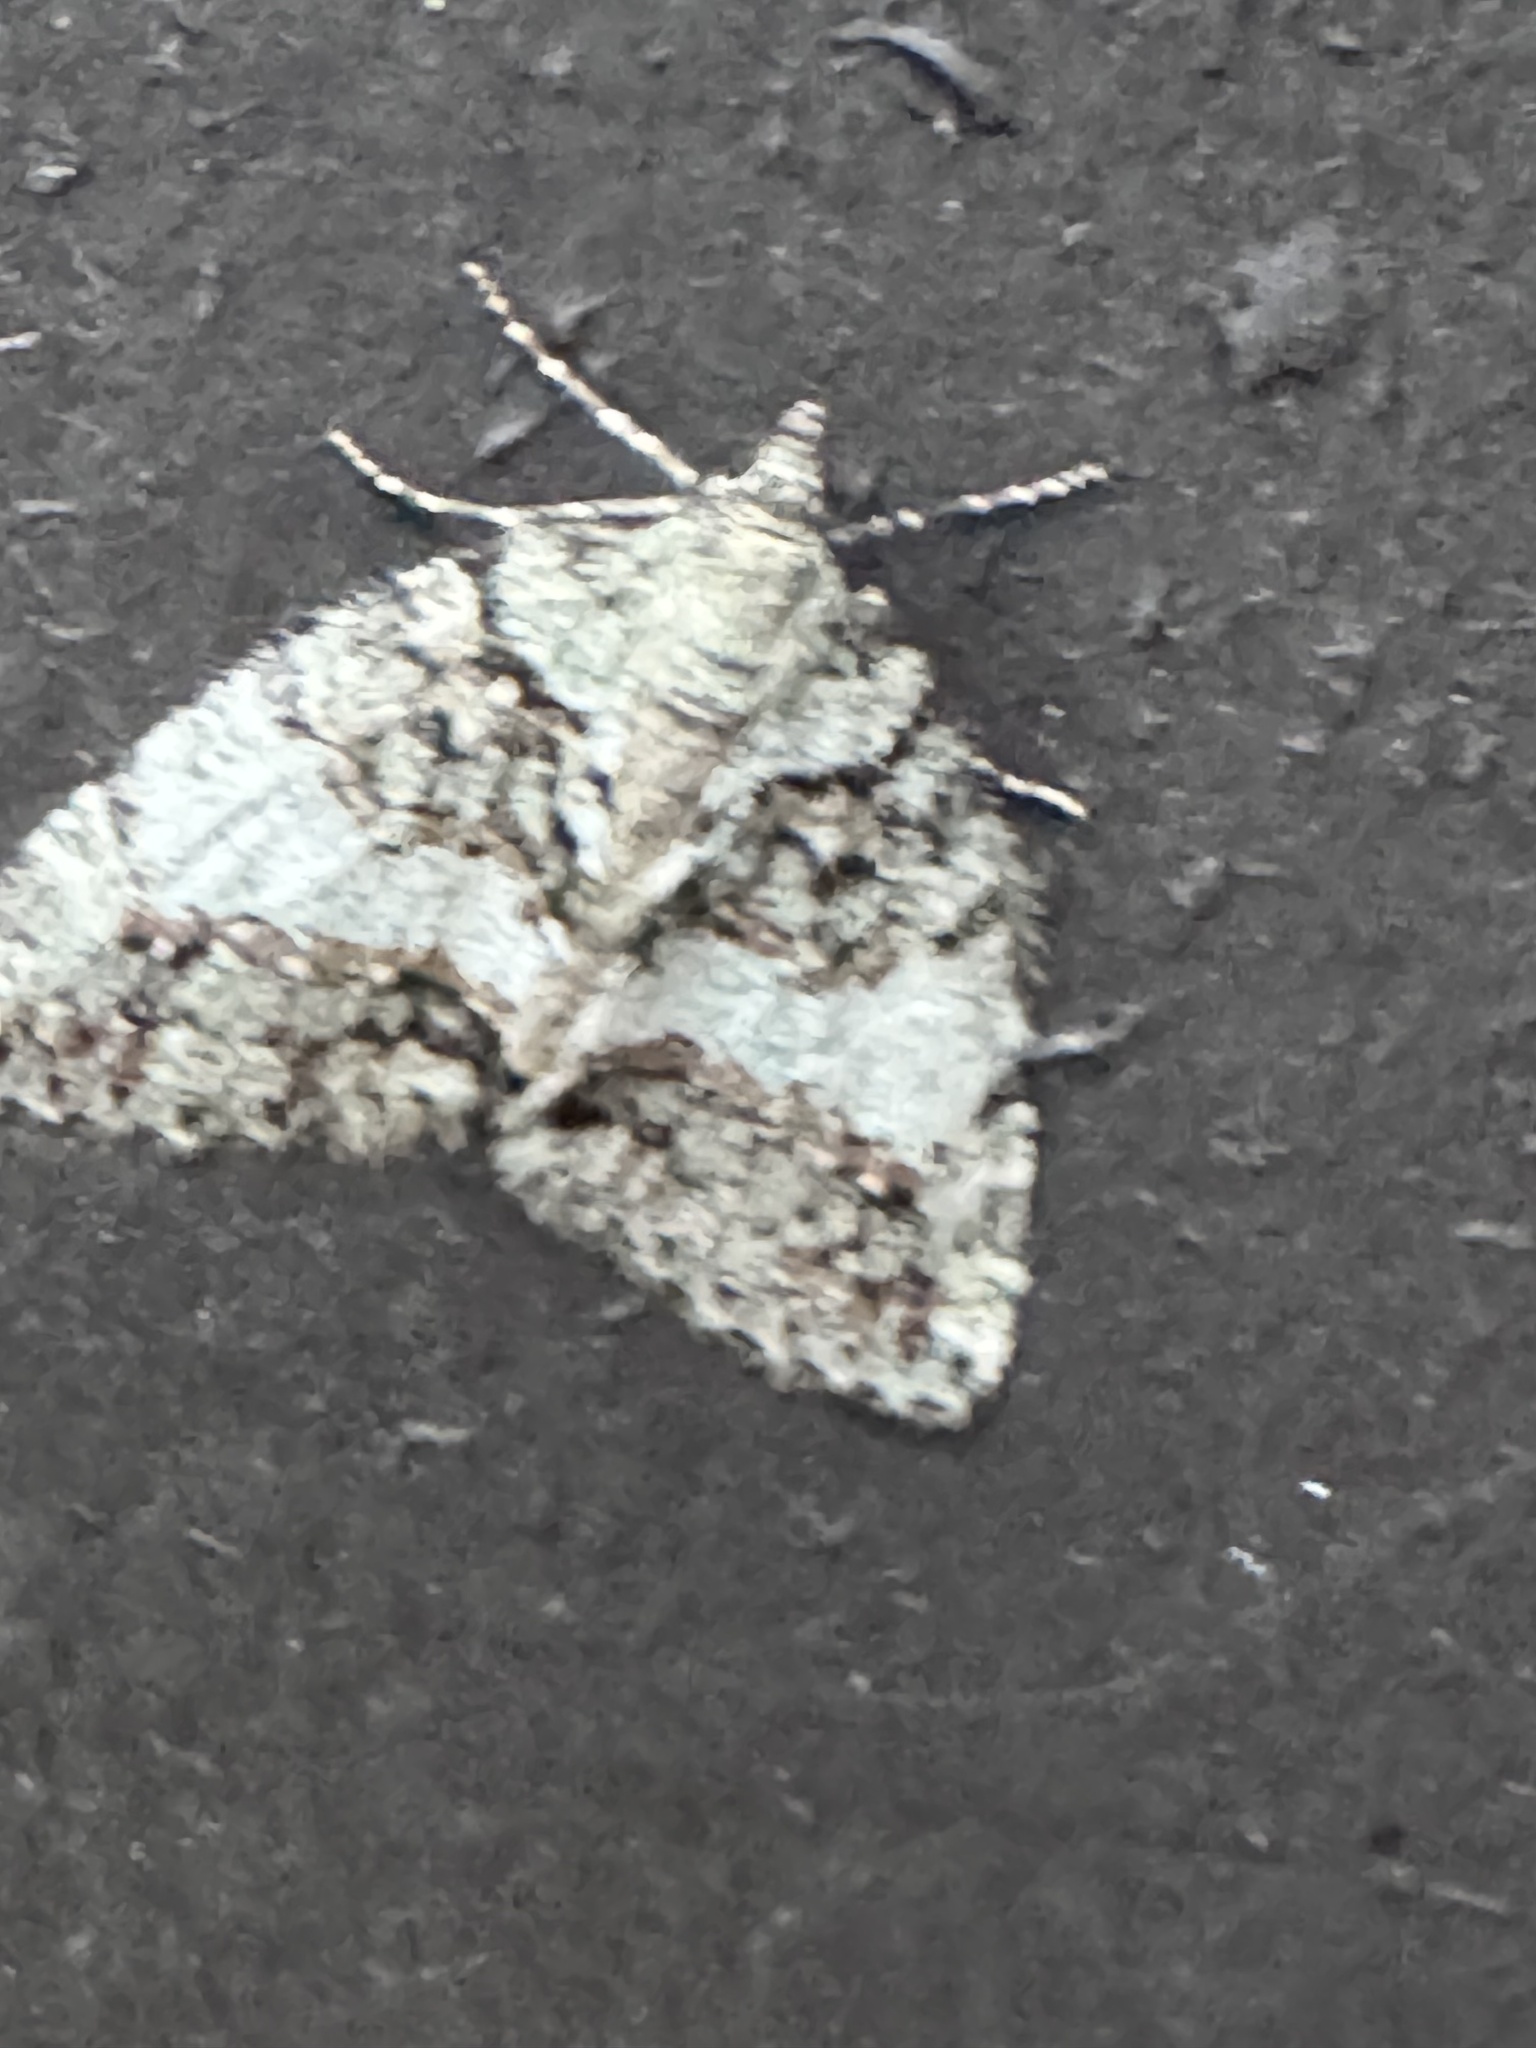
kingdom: Animalia
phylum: Arthropoda
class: Insecta
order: Lepidoptera
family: Geometridae
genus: Hydriomena
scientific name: Hydriomena nubilofasciata
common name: Oak winter highflier moth
